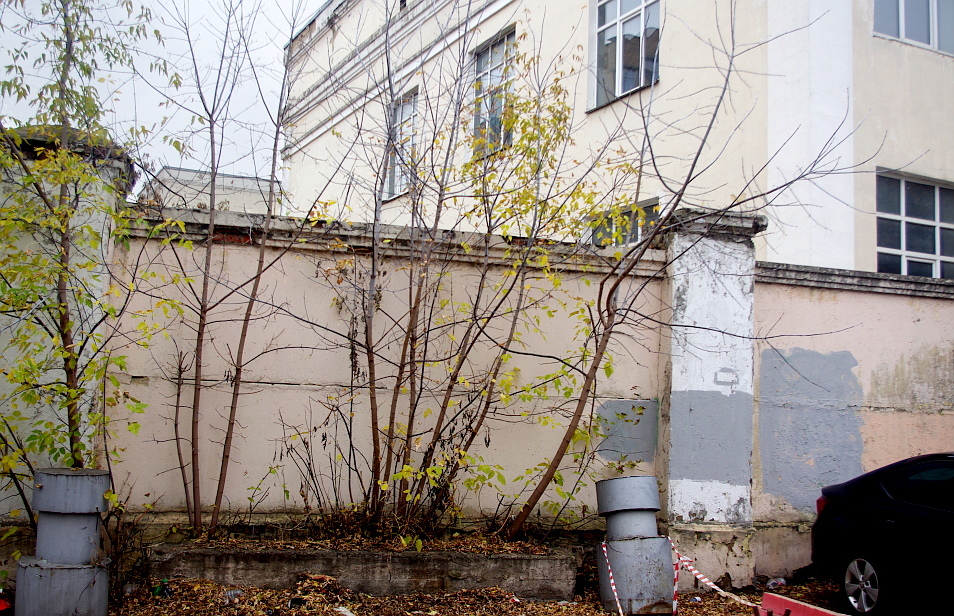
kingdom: Plantae
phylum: Tracheophyta
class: Magnoliopsida
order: Sapindales
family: Sapindaceae
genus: Acer
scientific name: Acer negundo
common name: Ashleaf maple
